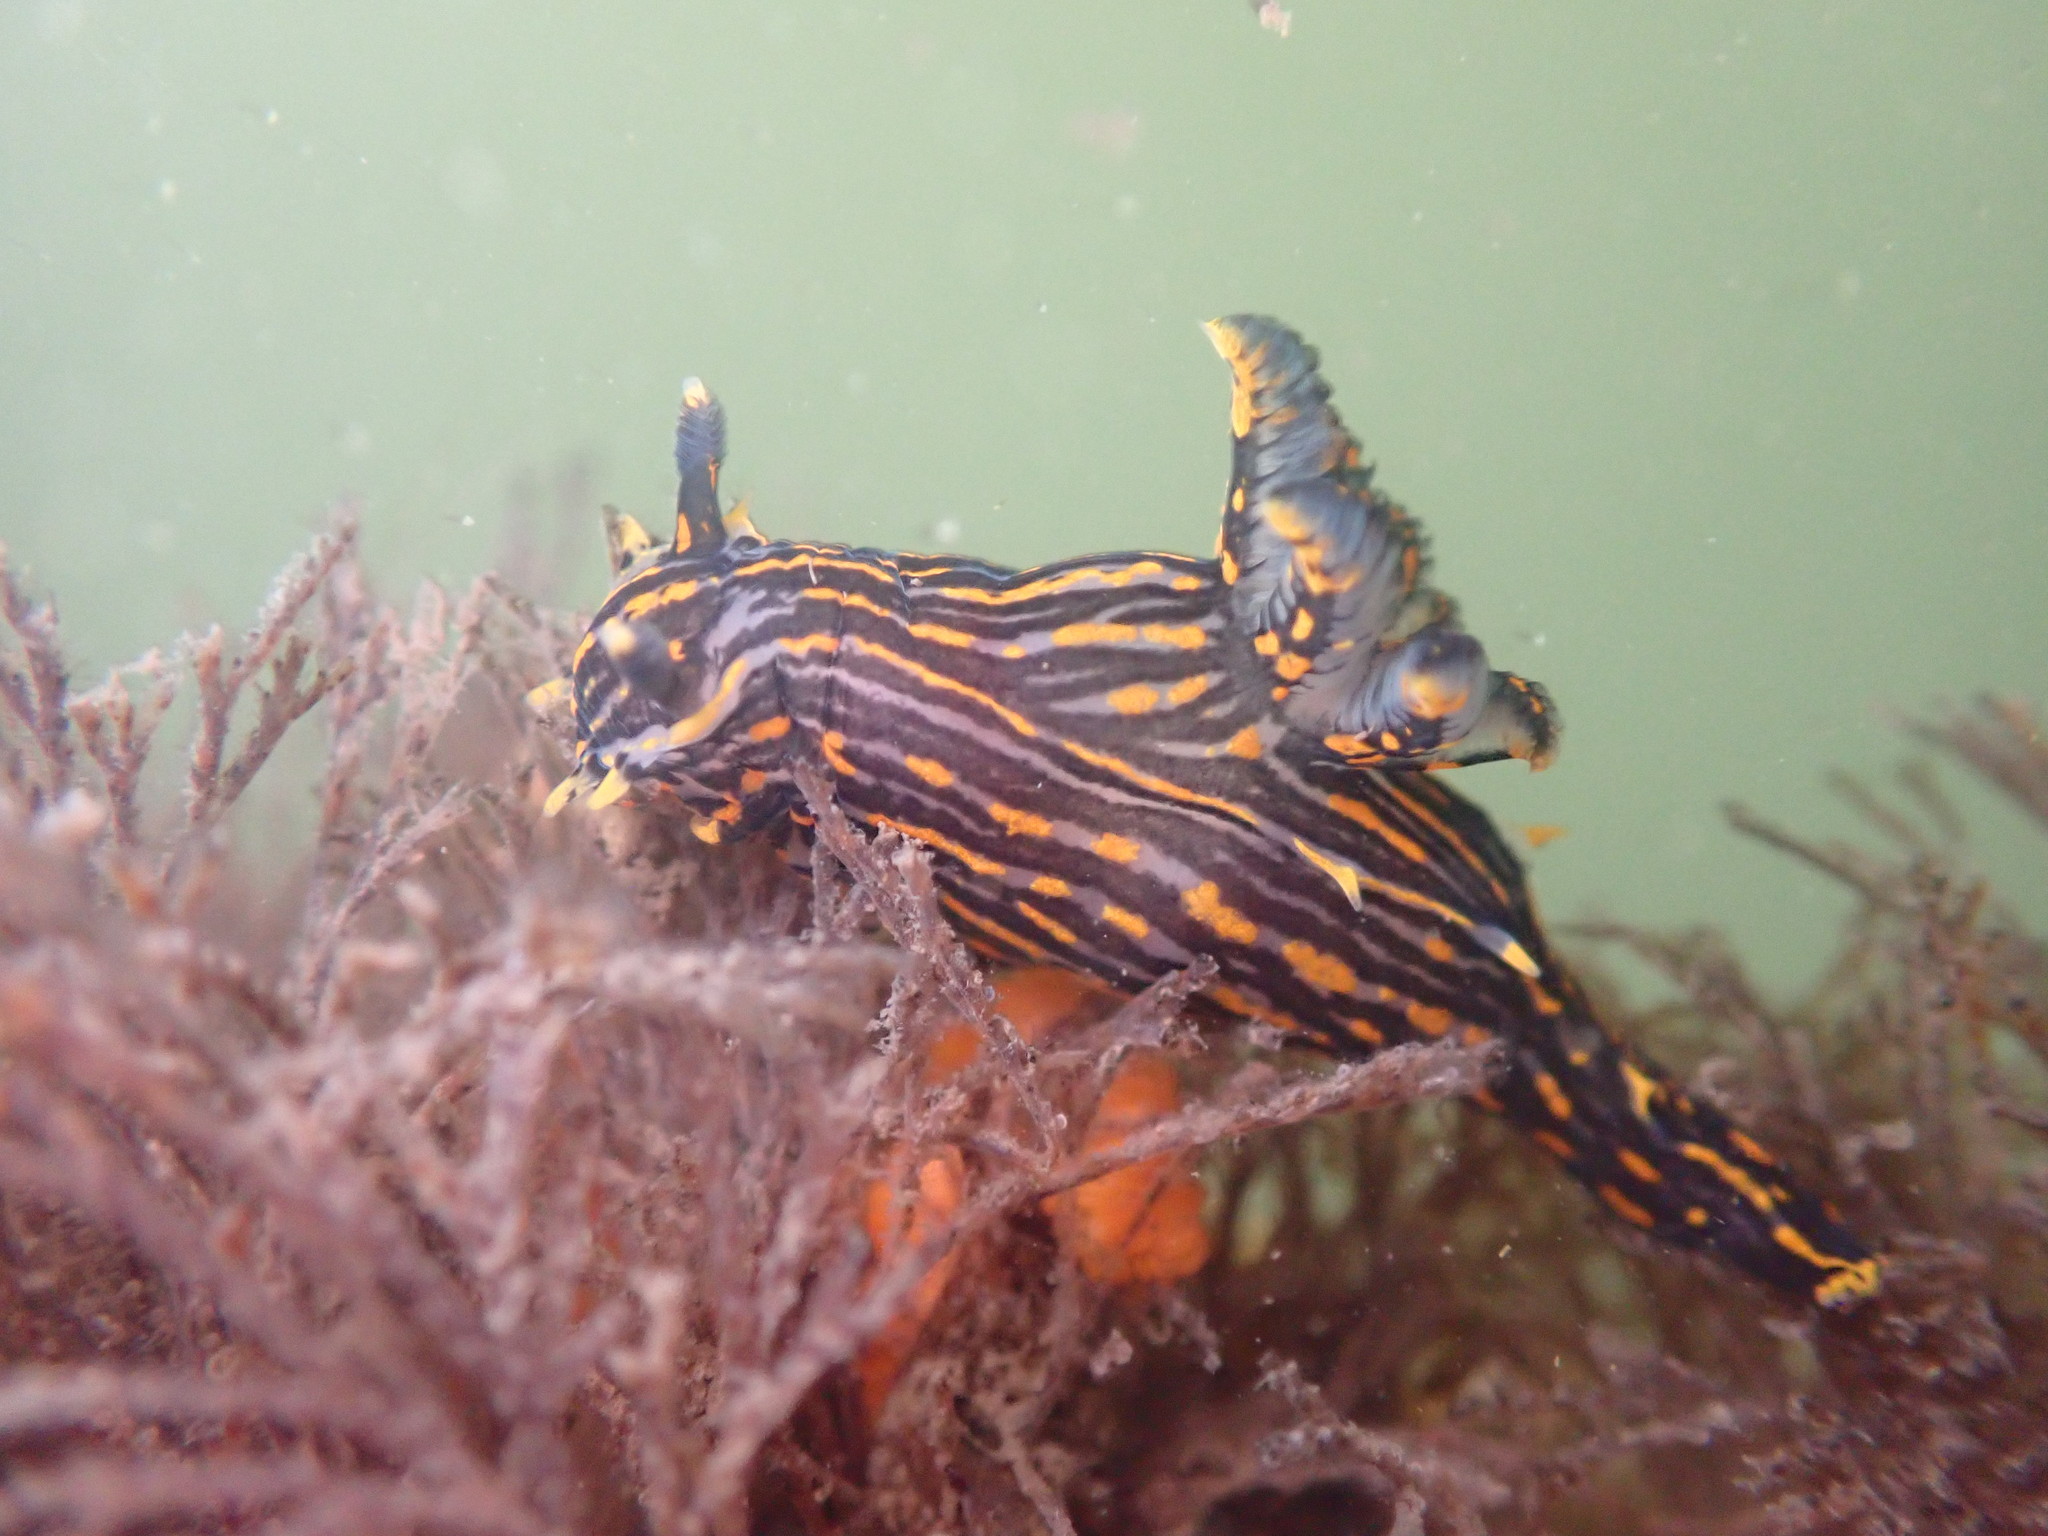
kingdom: Animalia
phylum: Mollusca
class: Gastropoda
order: Nudibranchia
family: Polyceridae
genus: Polycera
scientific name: Polycera atra
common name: Orange-spike polycera
